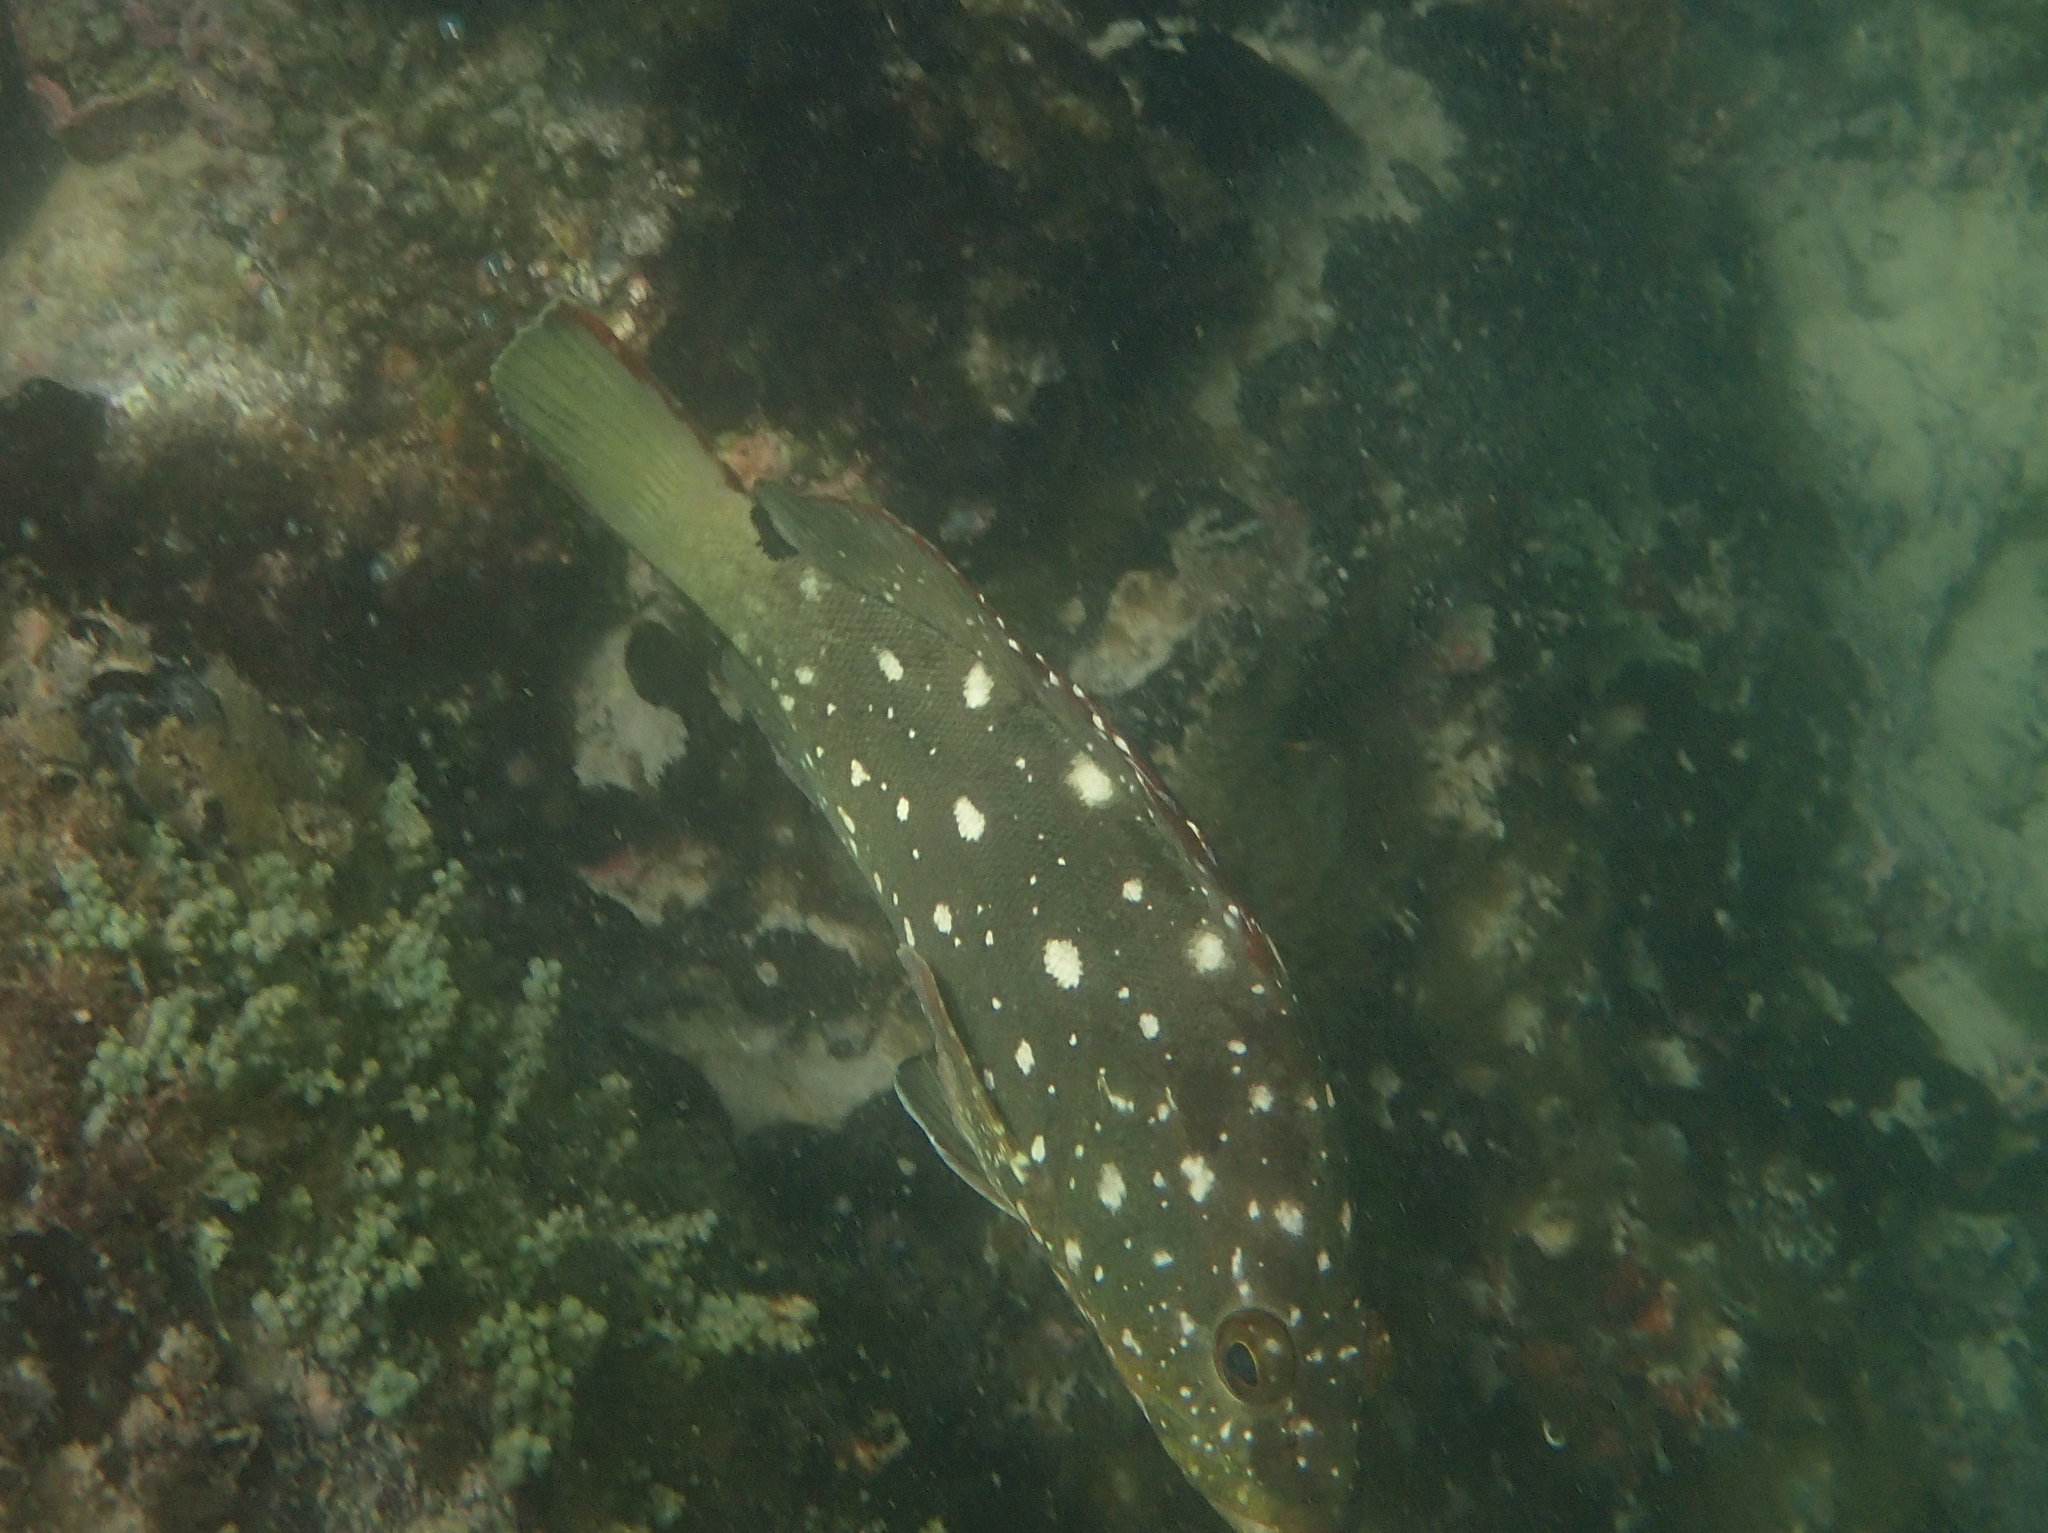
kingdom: Animalia
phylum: Chordata
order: Perciformes
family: Serranidae
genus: Epinephelus
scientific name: Epinephelus labriformis
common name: Flag cabrilla
